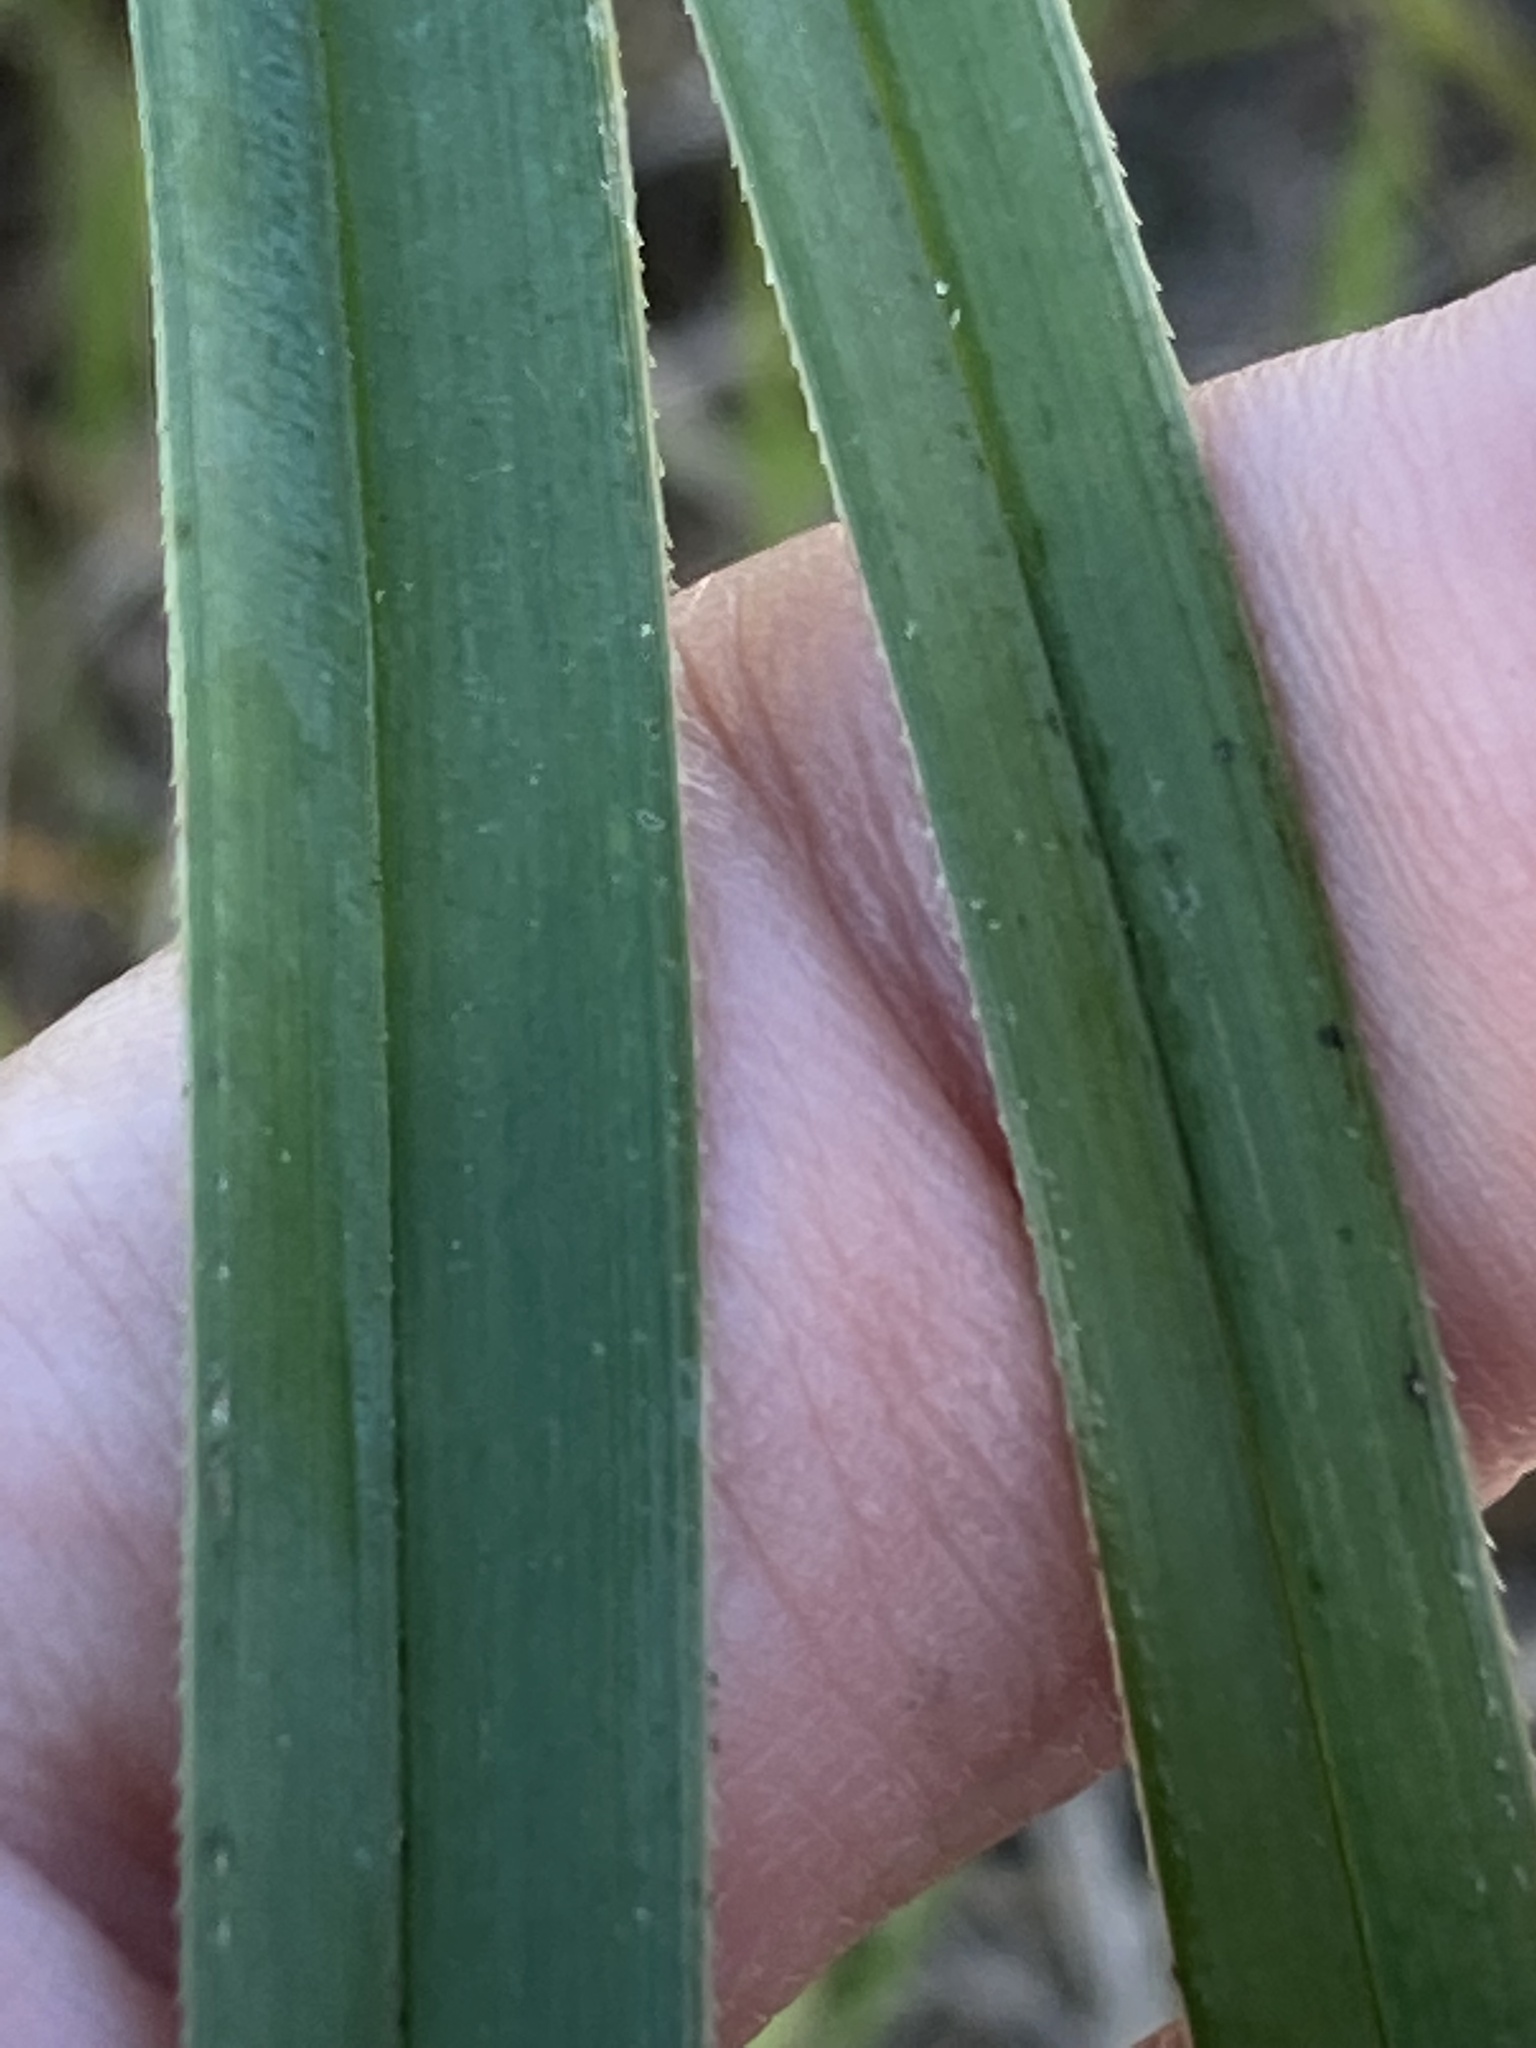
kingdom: Plantae
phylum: Tracheophyta
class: Liliopsida
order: Poales
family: Cyperaceae
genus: Cyperus
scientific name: Cyperus ligularis
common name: Swamp flat sedge
